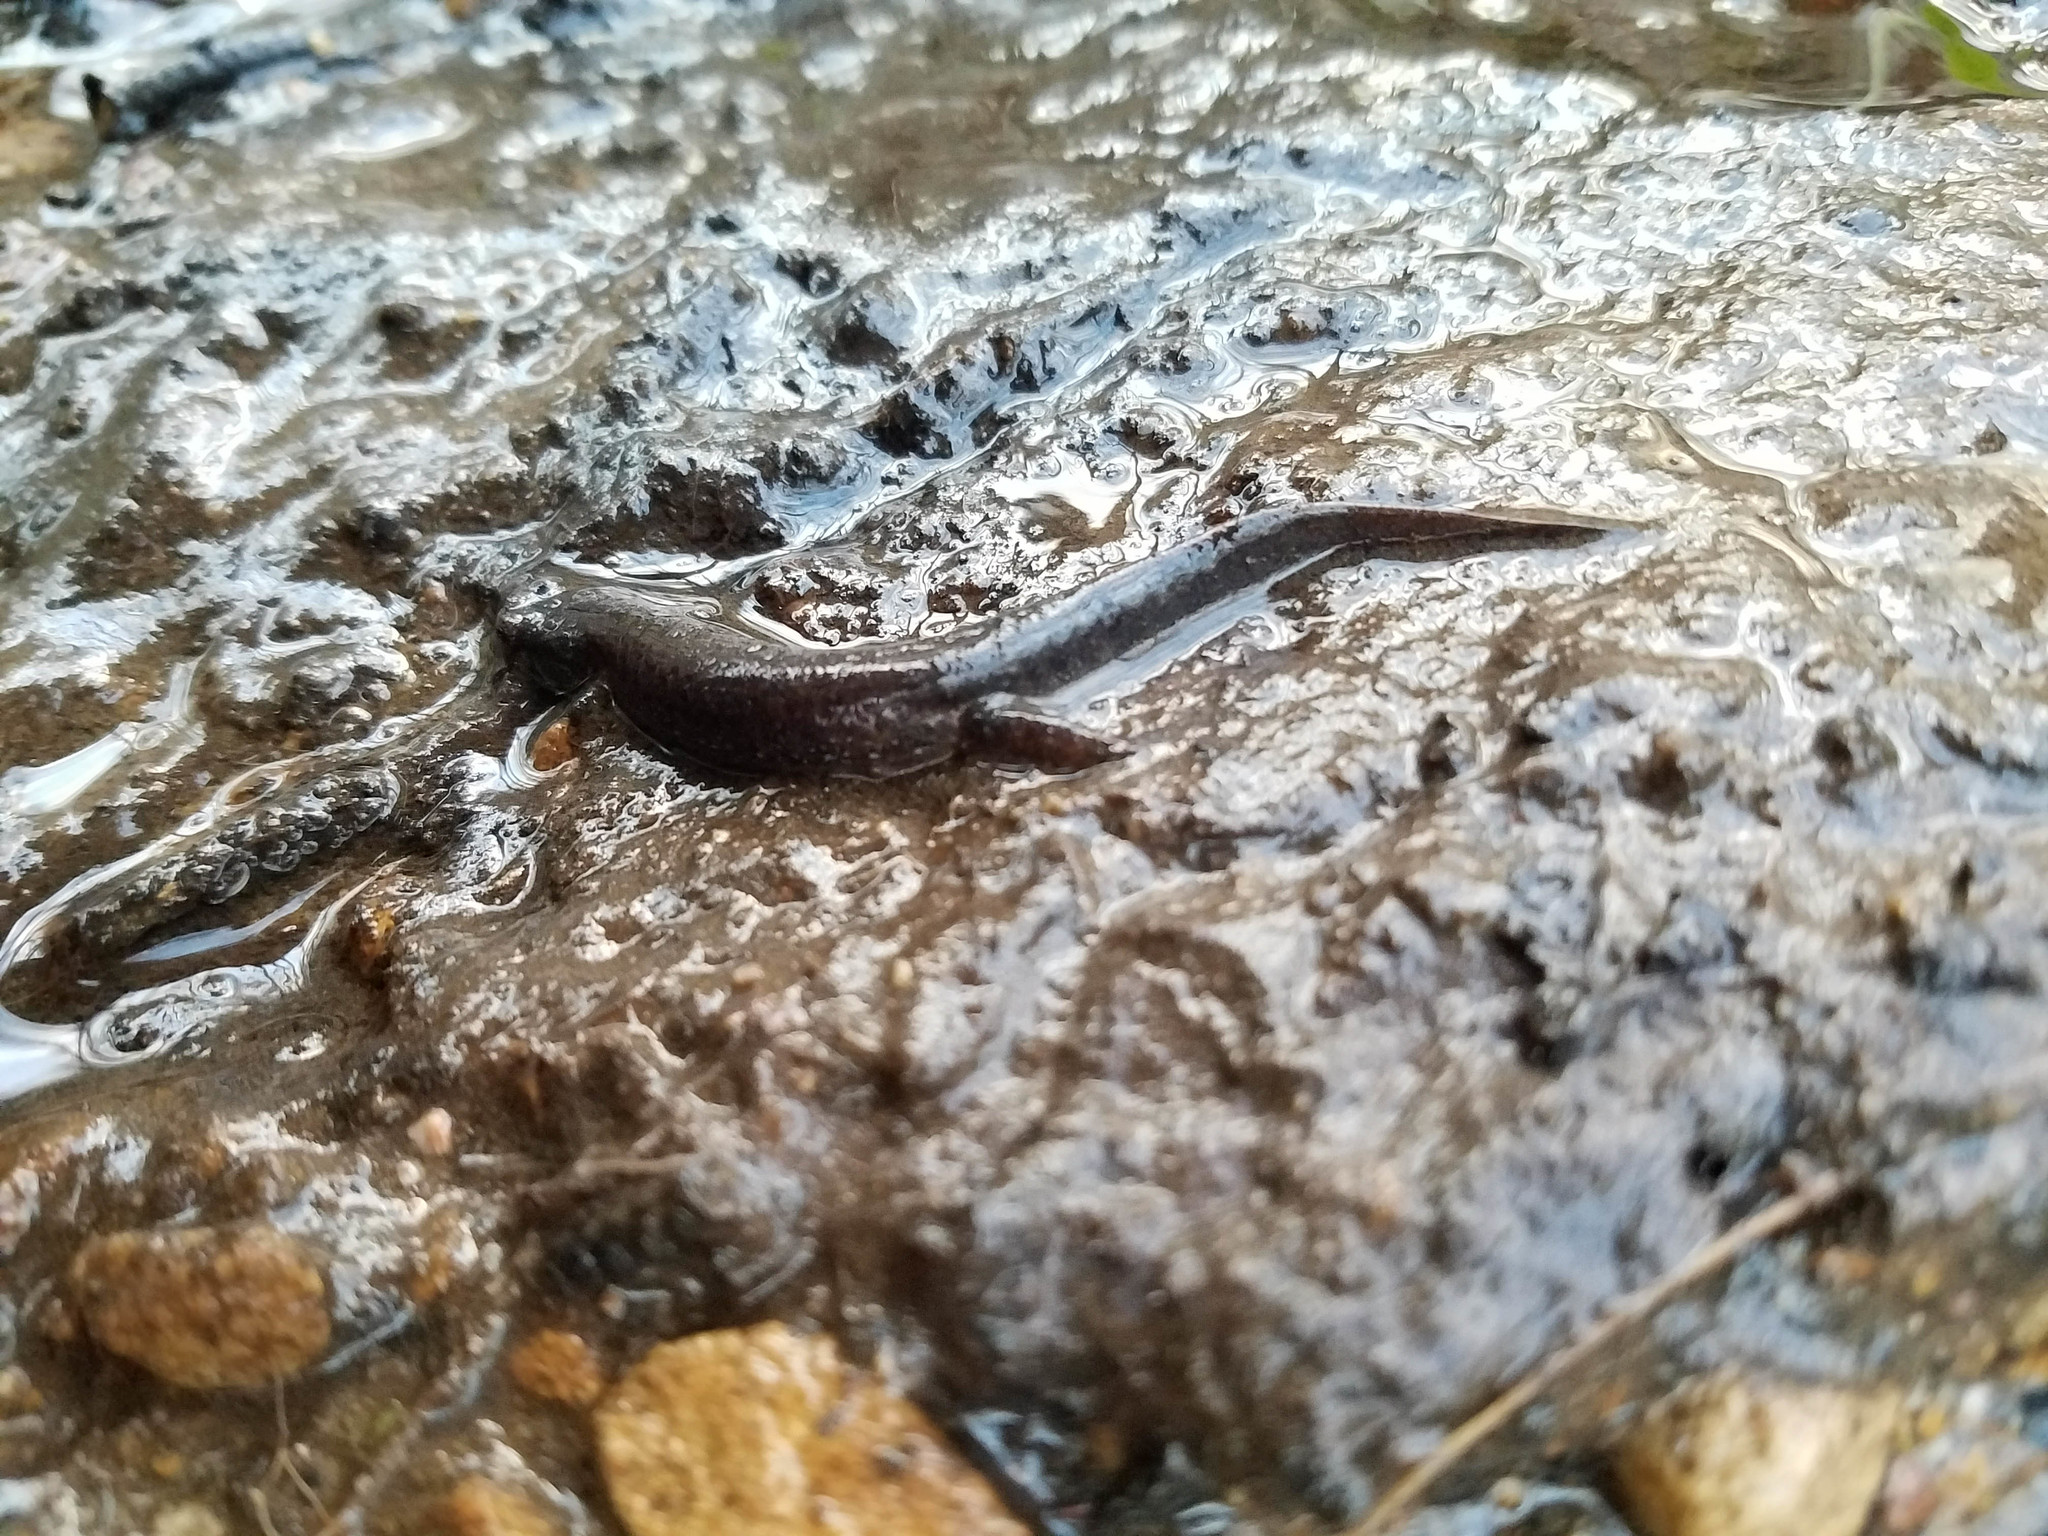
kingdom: Animalia
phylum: Chordata
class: Amphibia
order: Caudata
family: Plethodontidae
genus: Desmognathus
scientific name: Desmognathus monticola
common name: Seal salamander
